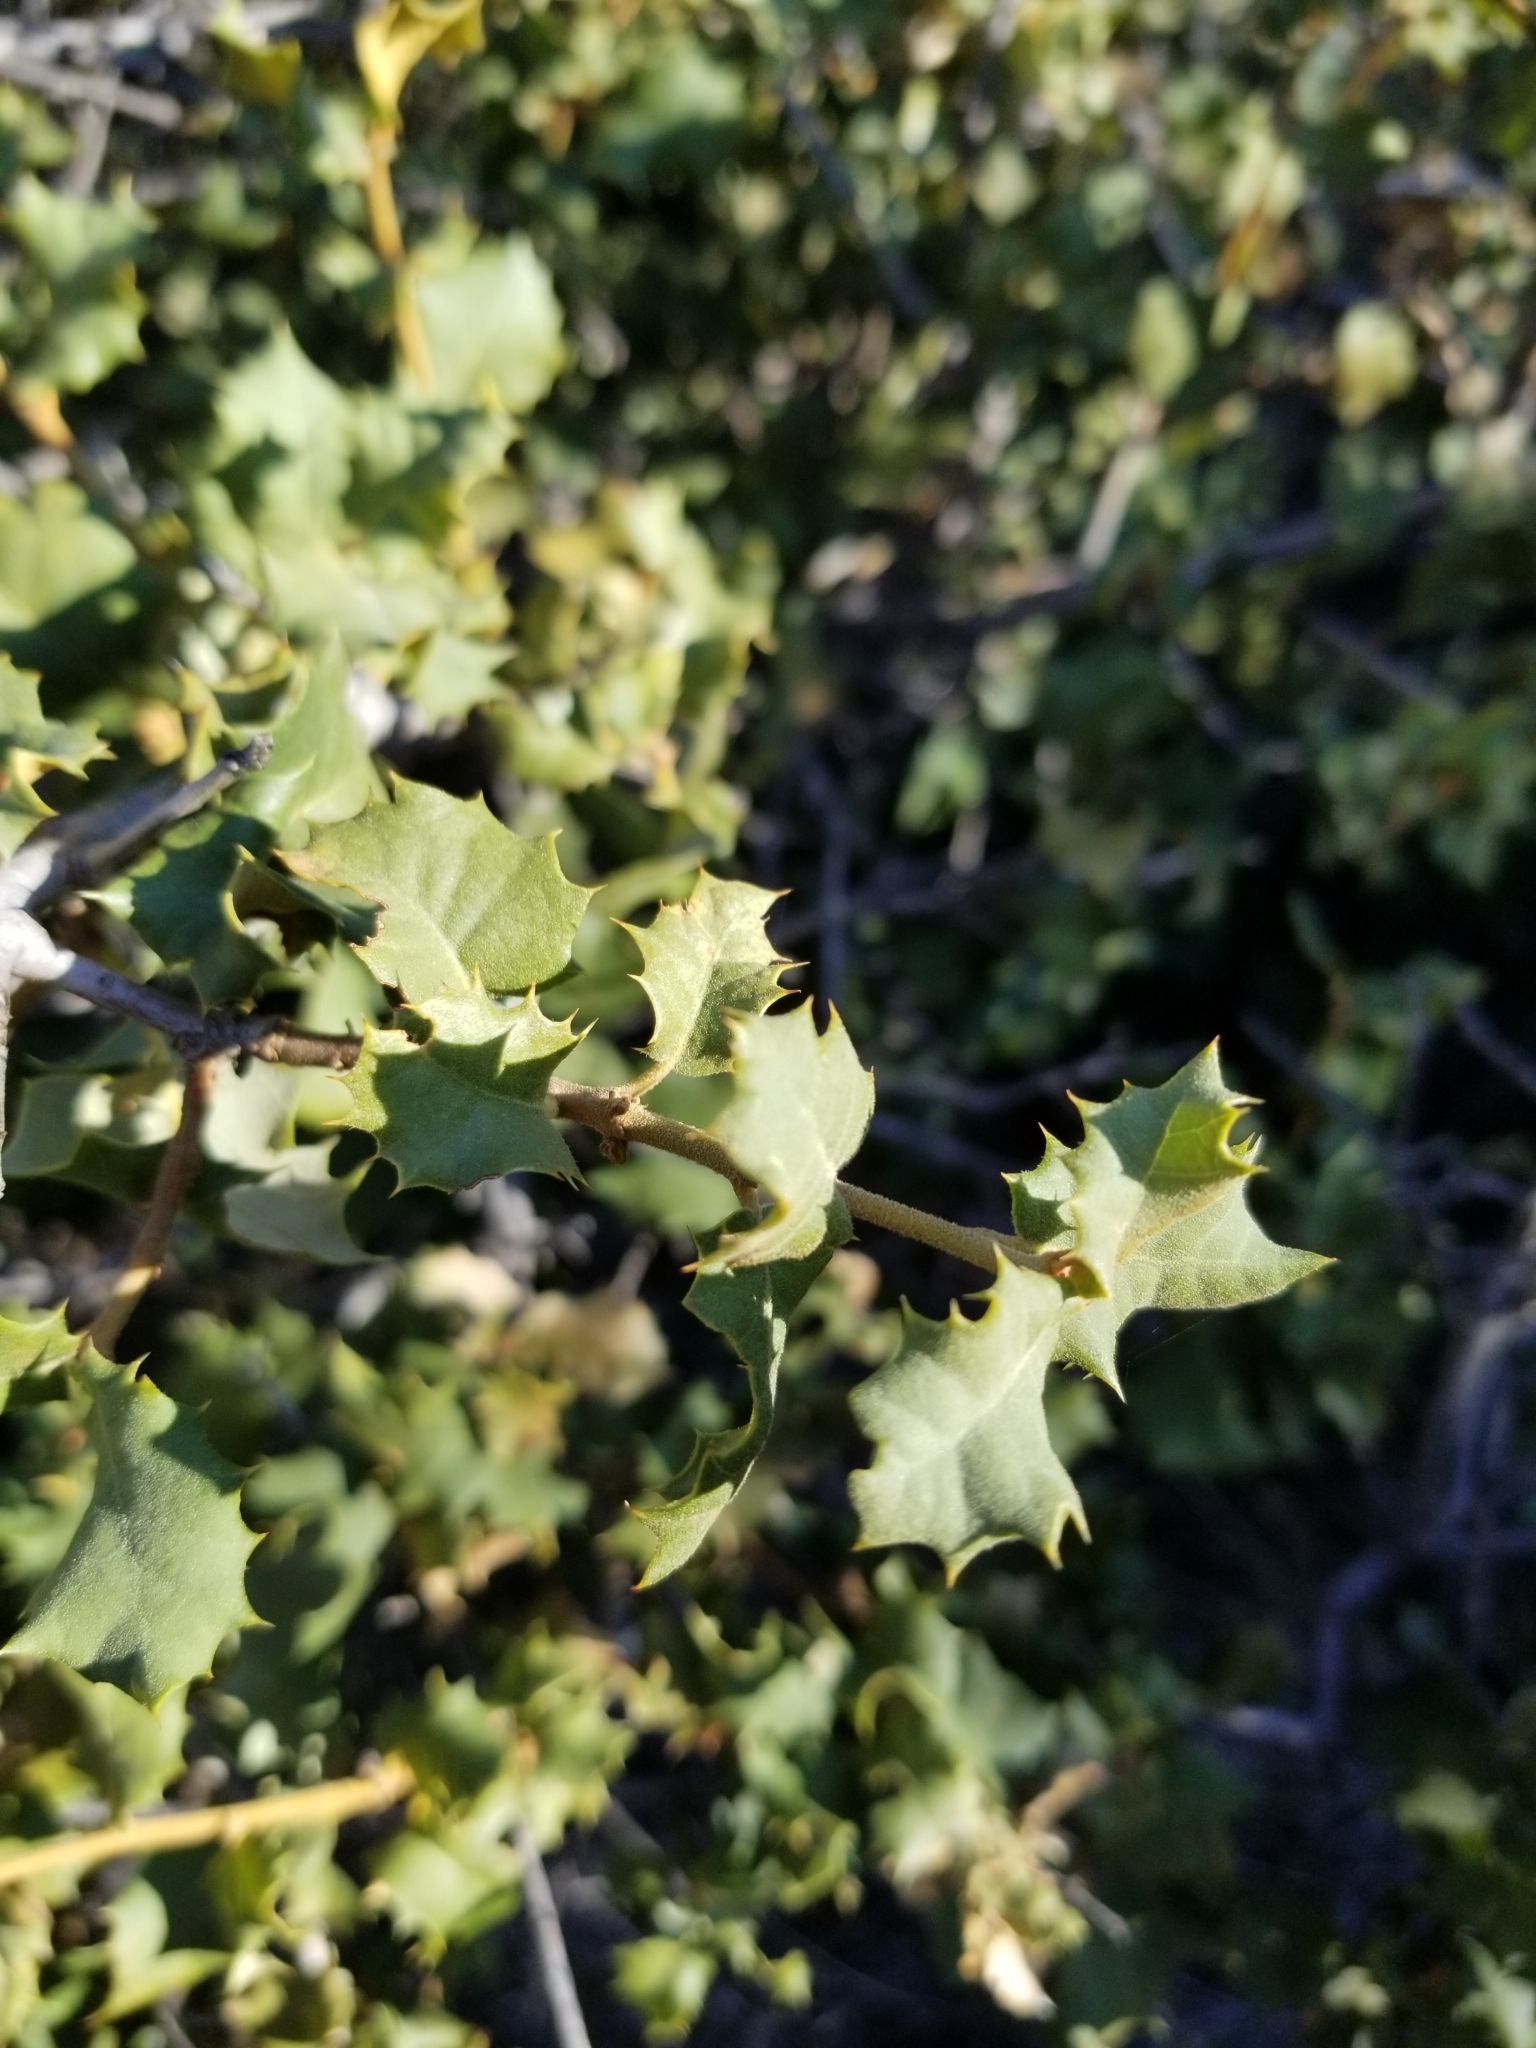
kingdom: Plantae
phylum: Tracheophyta
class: Magnoliopsida
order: Fagales
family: Fagaceae
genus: Quercus
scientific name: Quercus palmeri
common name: Dunn oak
